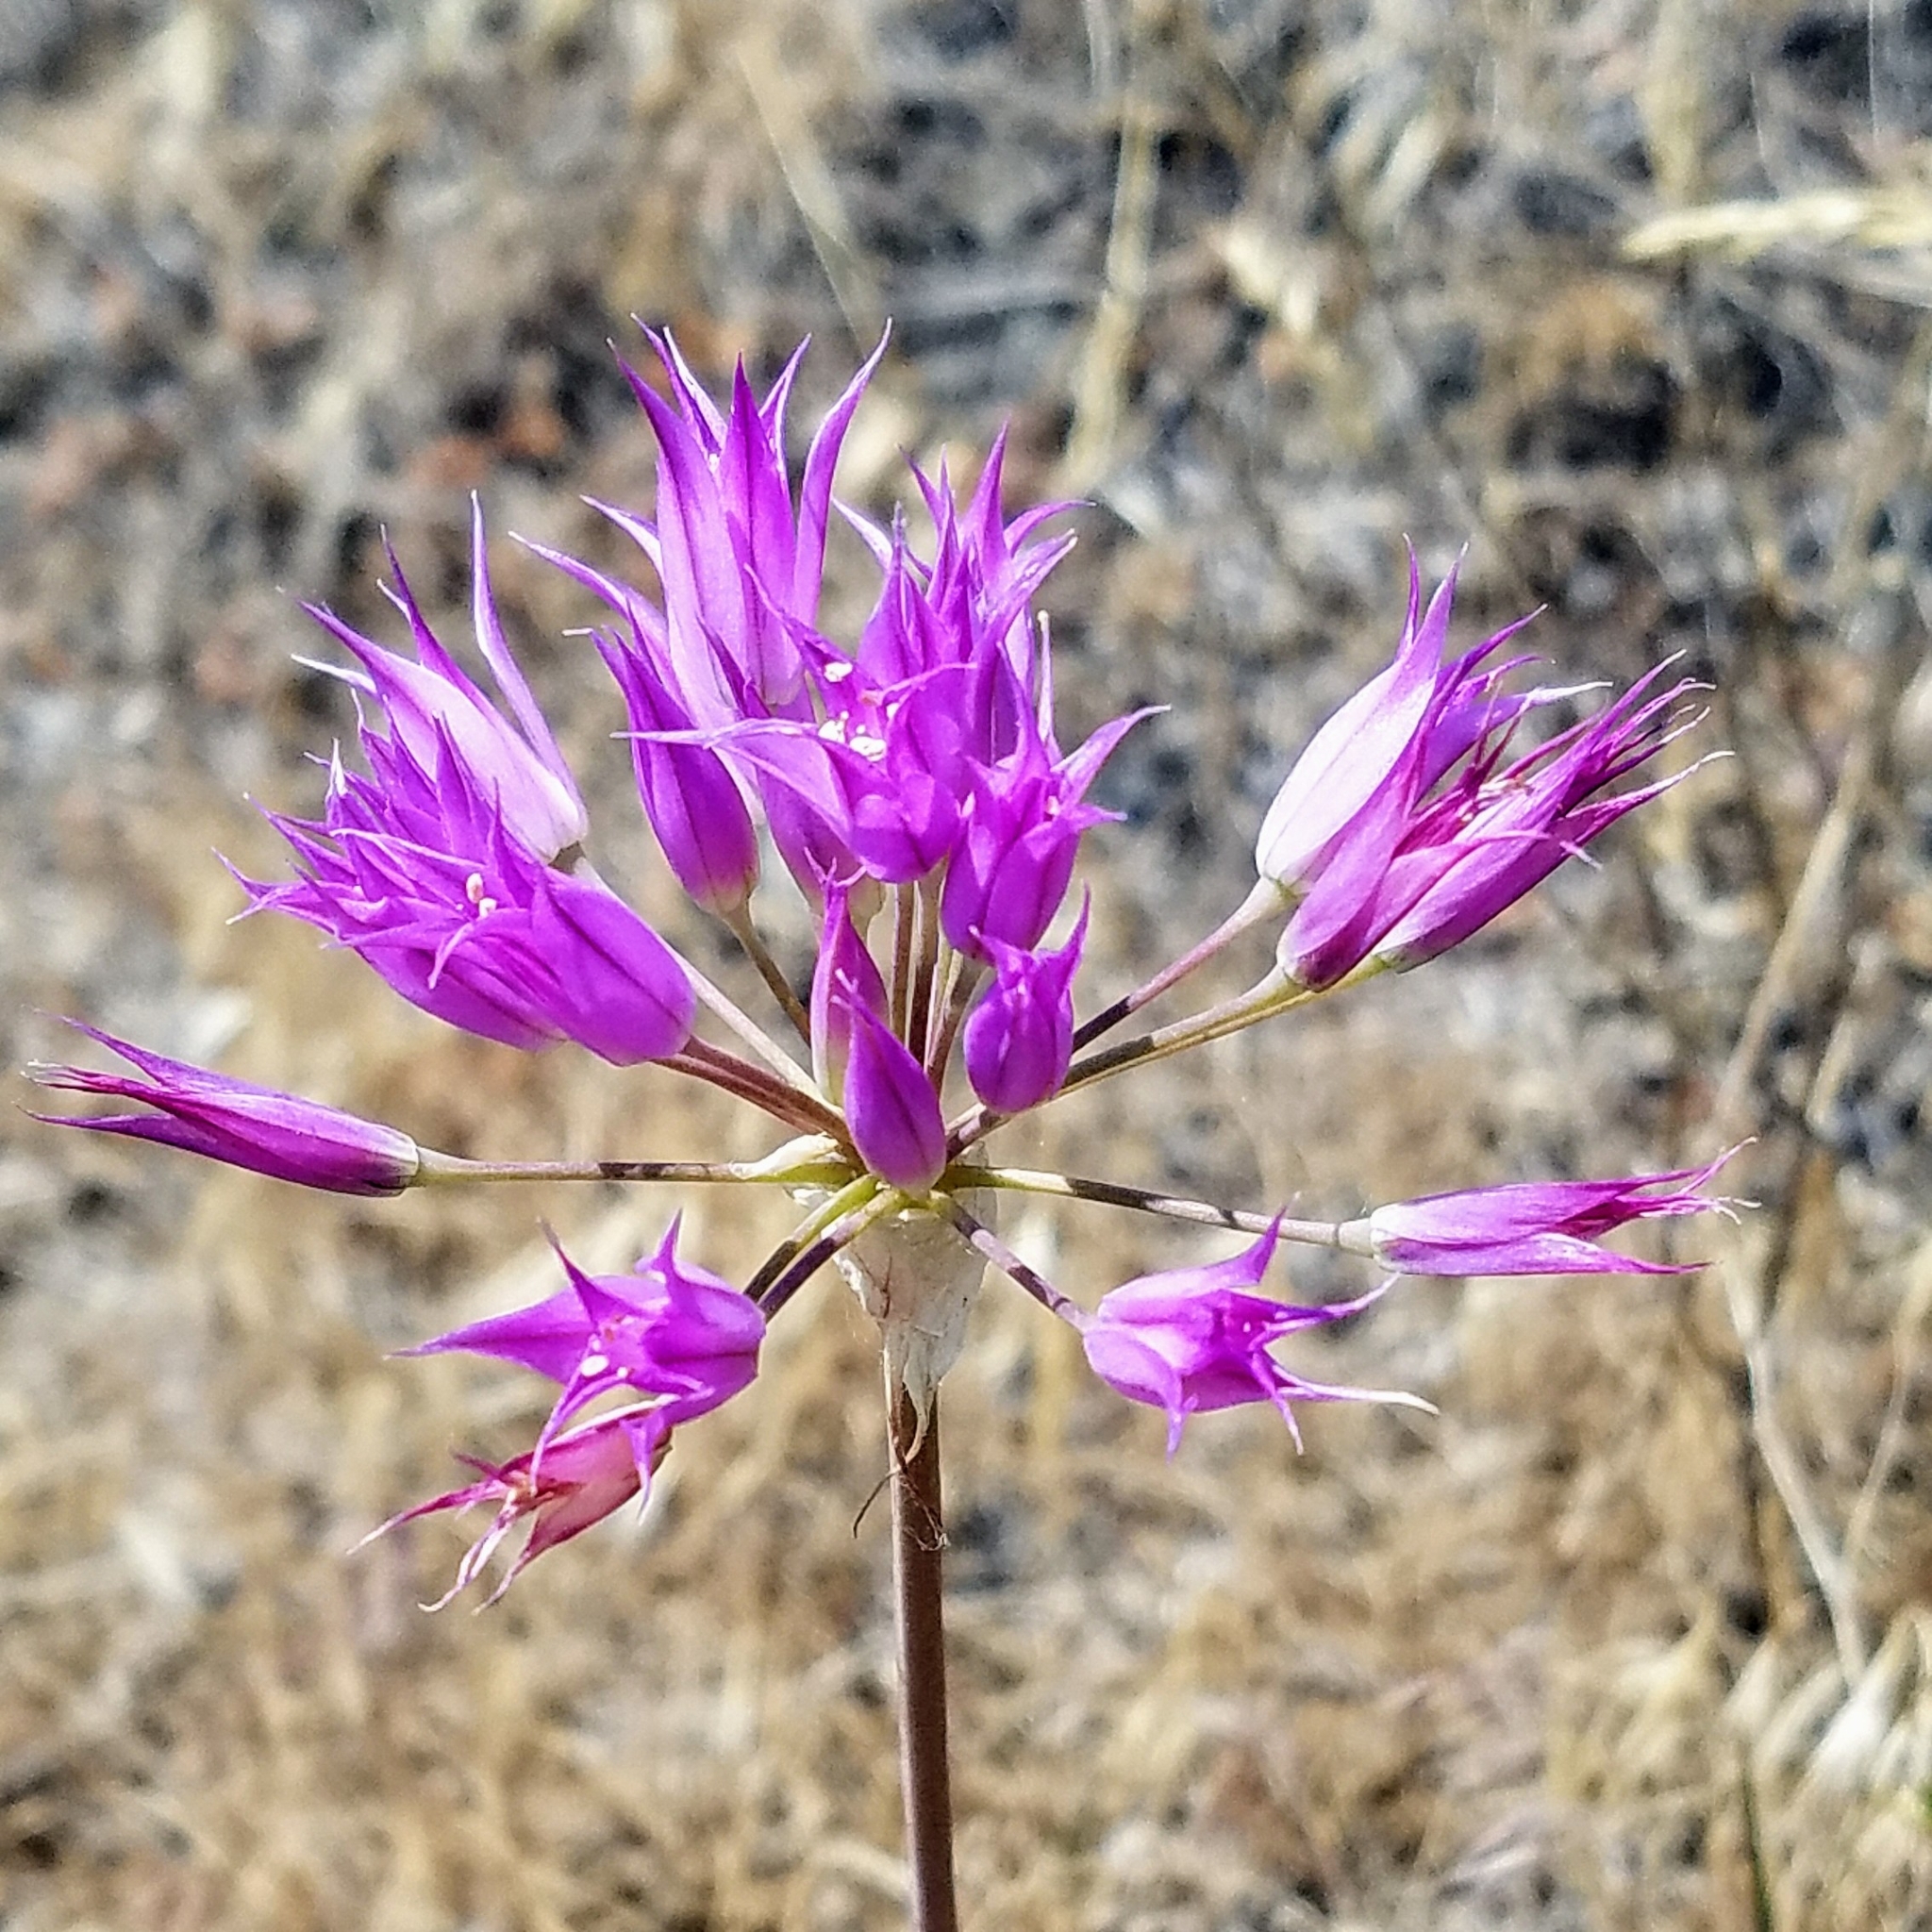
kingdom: Plantae
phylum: Tracheophyta
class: Liliopsida
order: Asparagales
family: Amaryllidaceae
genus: Allium
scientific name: Allium acuminatum
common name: Hooker's onion
